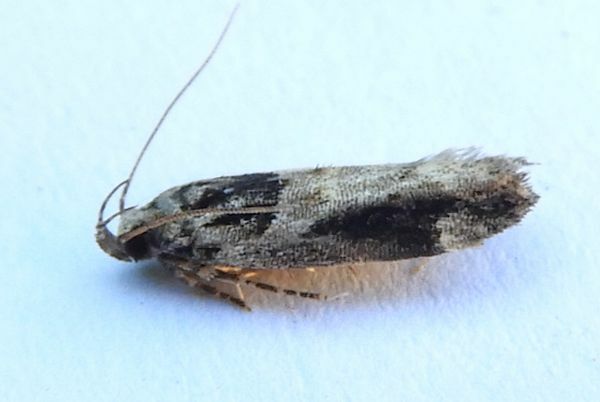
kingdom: Animalia
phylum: Arthropoda
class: Insecta
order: Lepidoptera
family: Gelechiidae
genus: Pseudochelaria
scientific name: Pseudochelaria walsinghami
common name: Walsingham's moth
